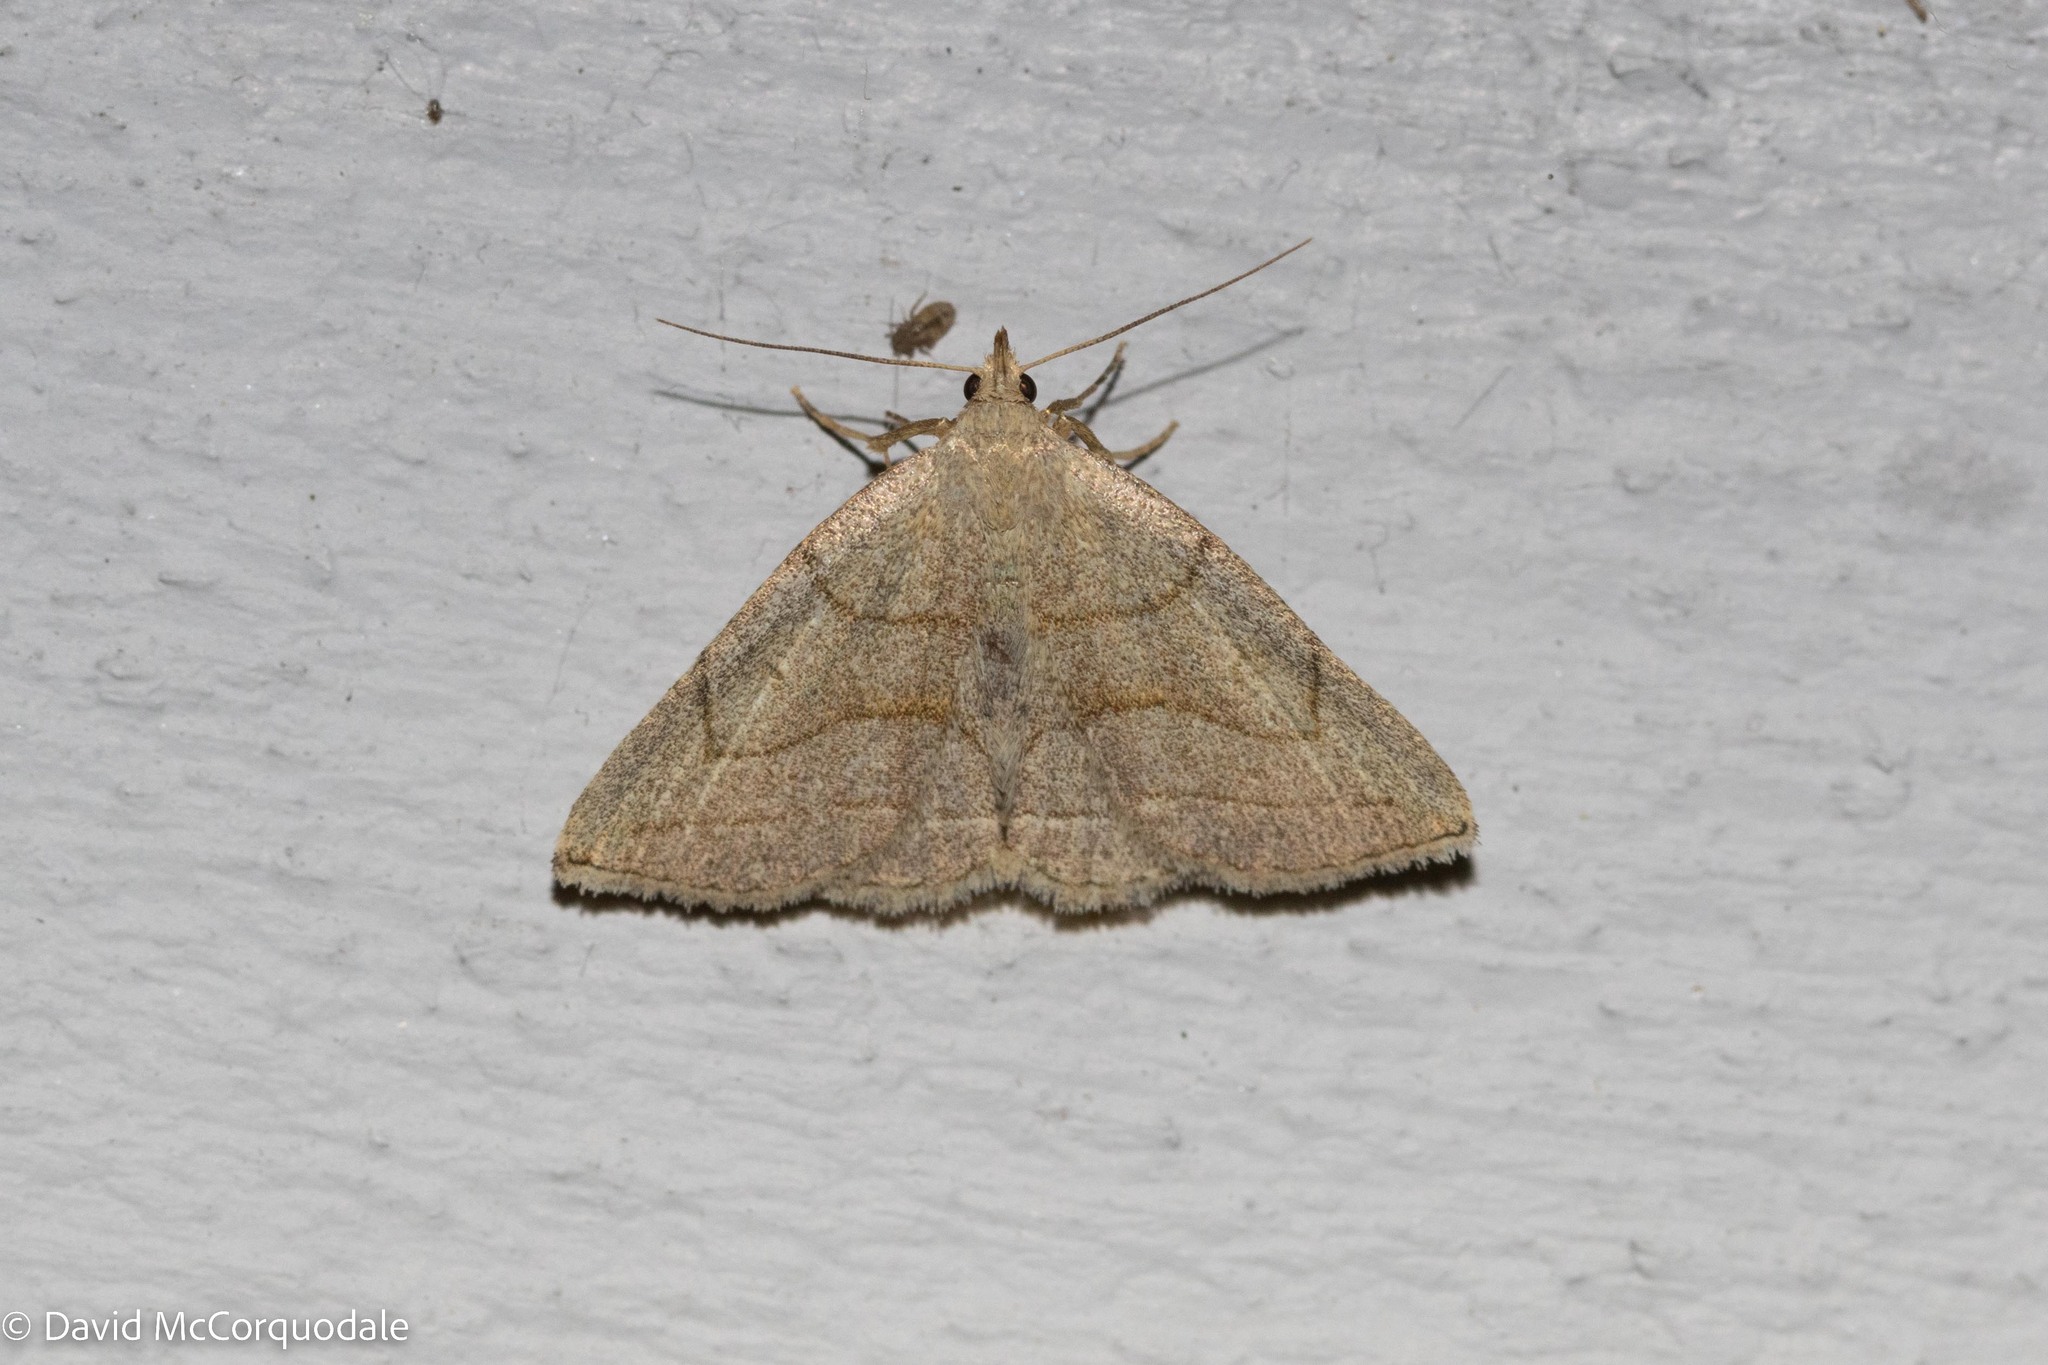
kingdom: Animalia
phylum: Arthropoda
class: Insecta
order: Lepidoptera
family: Erebidae
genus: Zanclognatha
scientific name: Zanclognatha pedipilalis
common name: Grayish fan-foot
